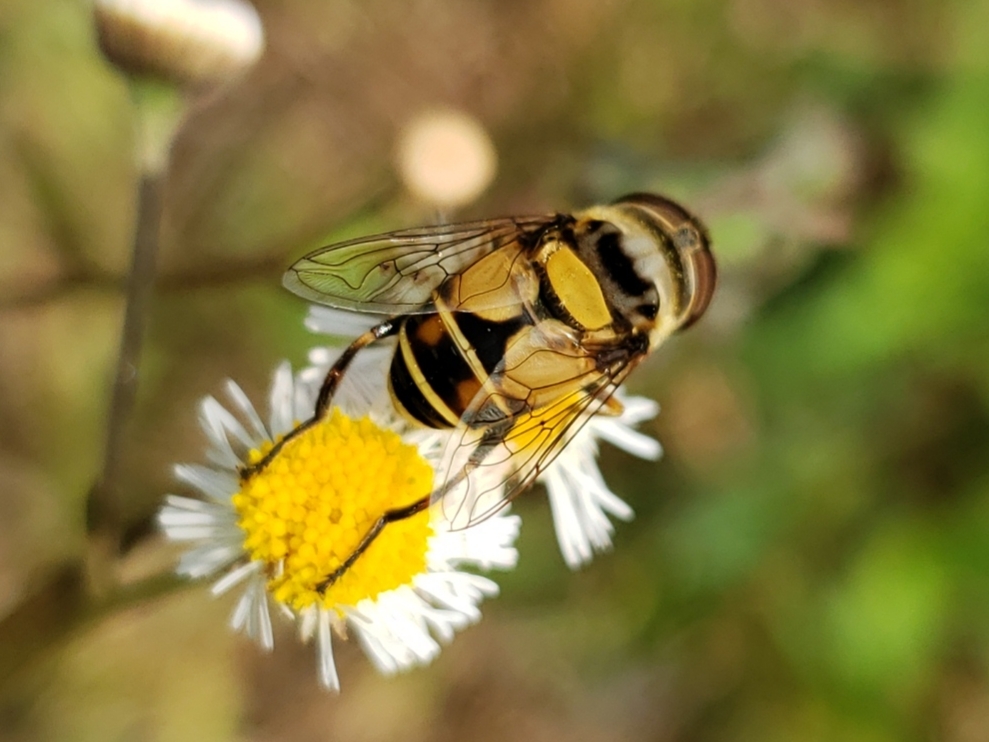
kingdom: Animalia
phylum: Arthropoda
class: Insecta
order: Diptera
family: Syrphidae
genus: Palpada
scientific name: Palpada pusilla
